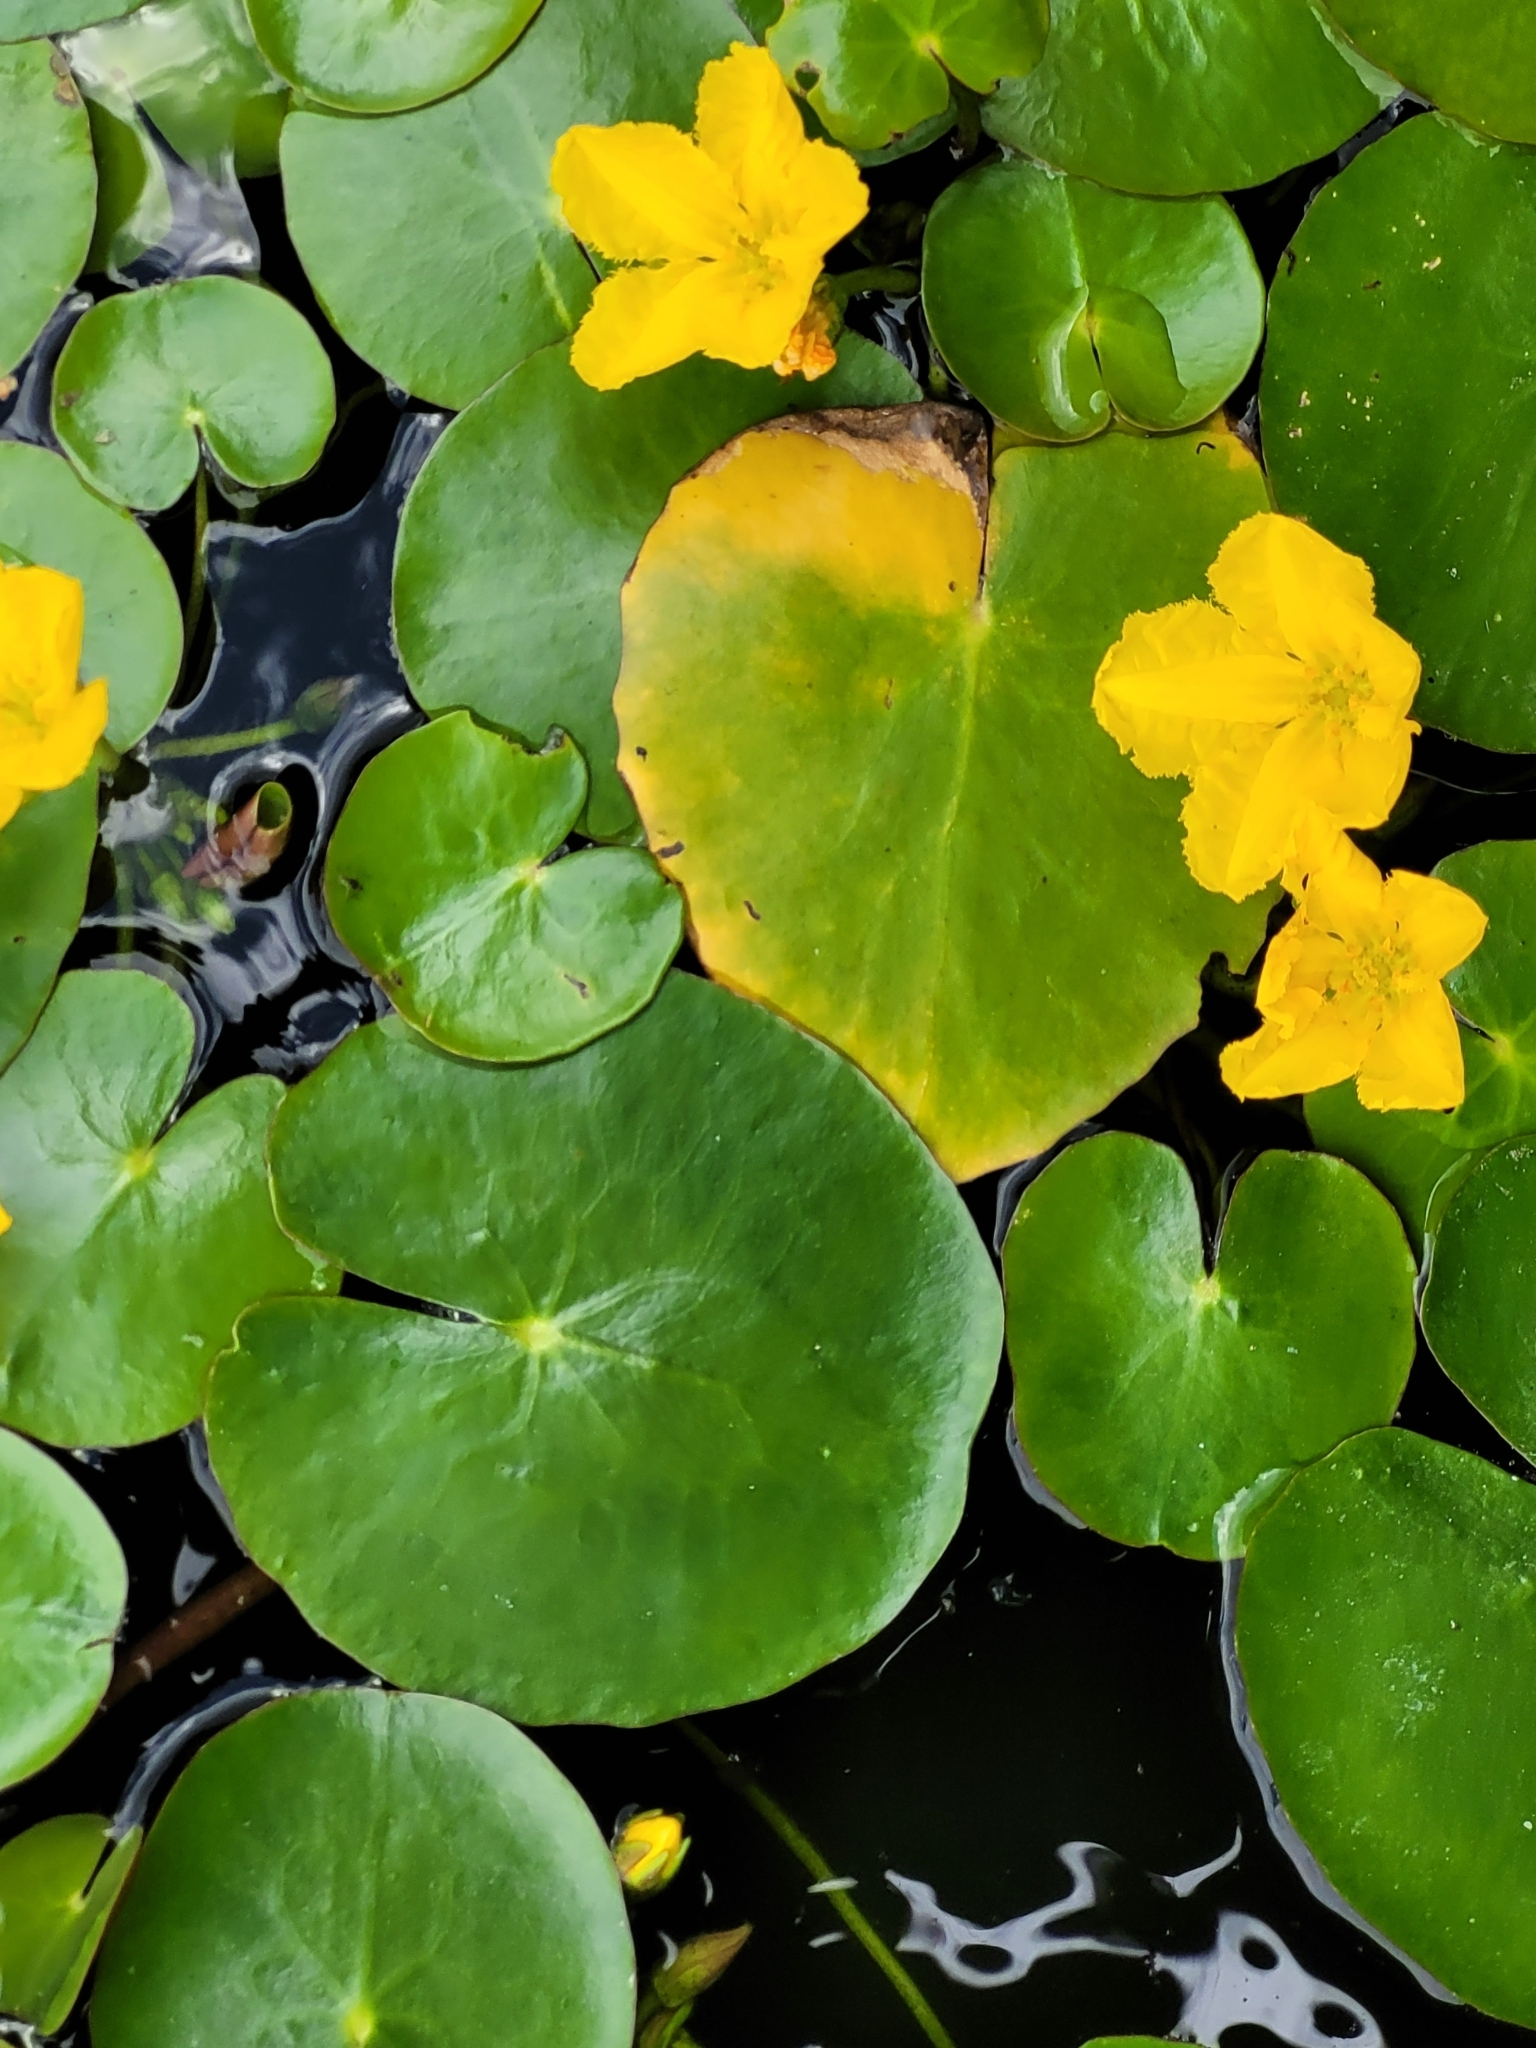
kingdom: Plantae
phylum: Tracheophyta
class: Magnoliopsida
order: Asterales
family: Menyanthaceae
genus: Nymphoides
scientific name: Nymphoides peltata
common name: Fringed water-lily
